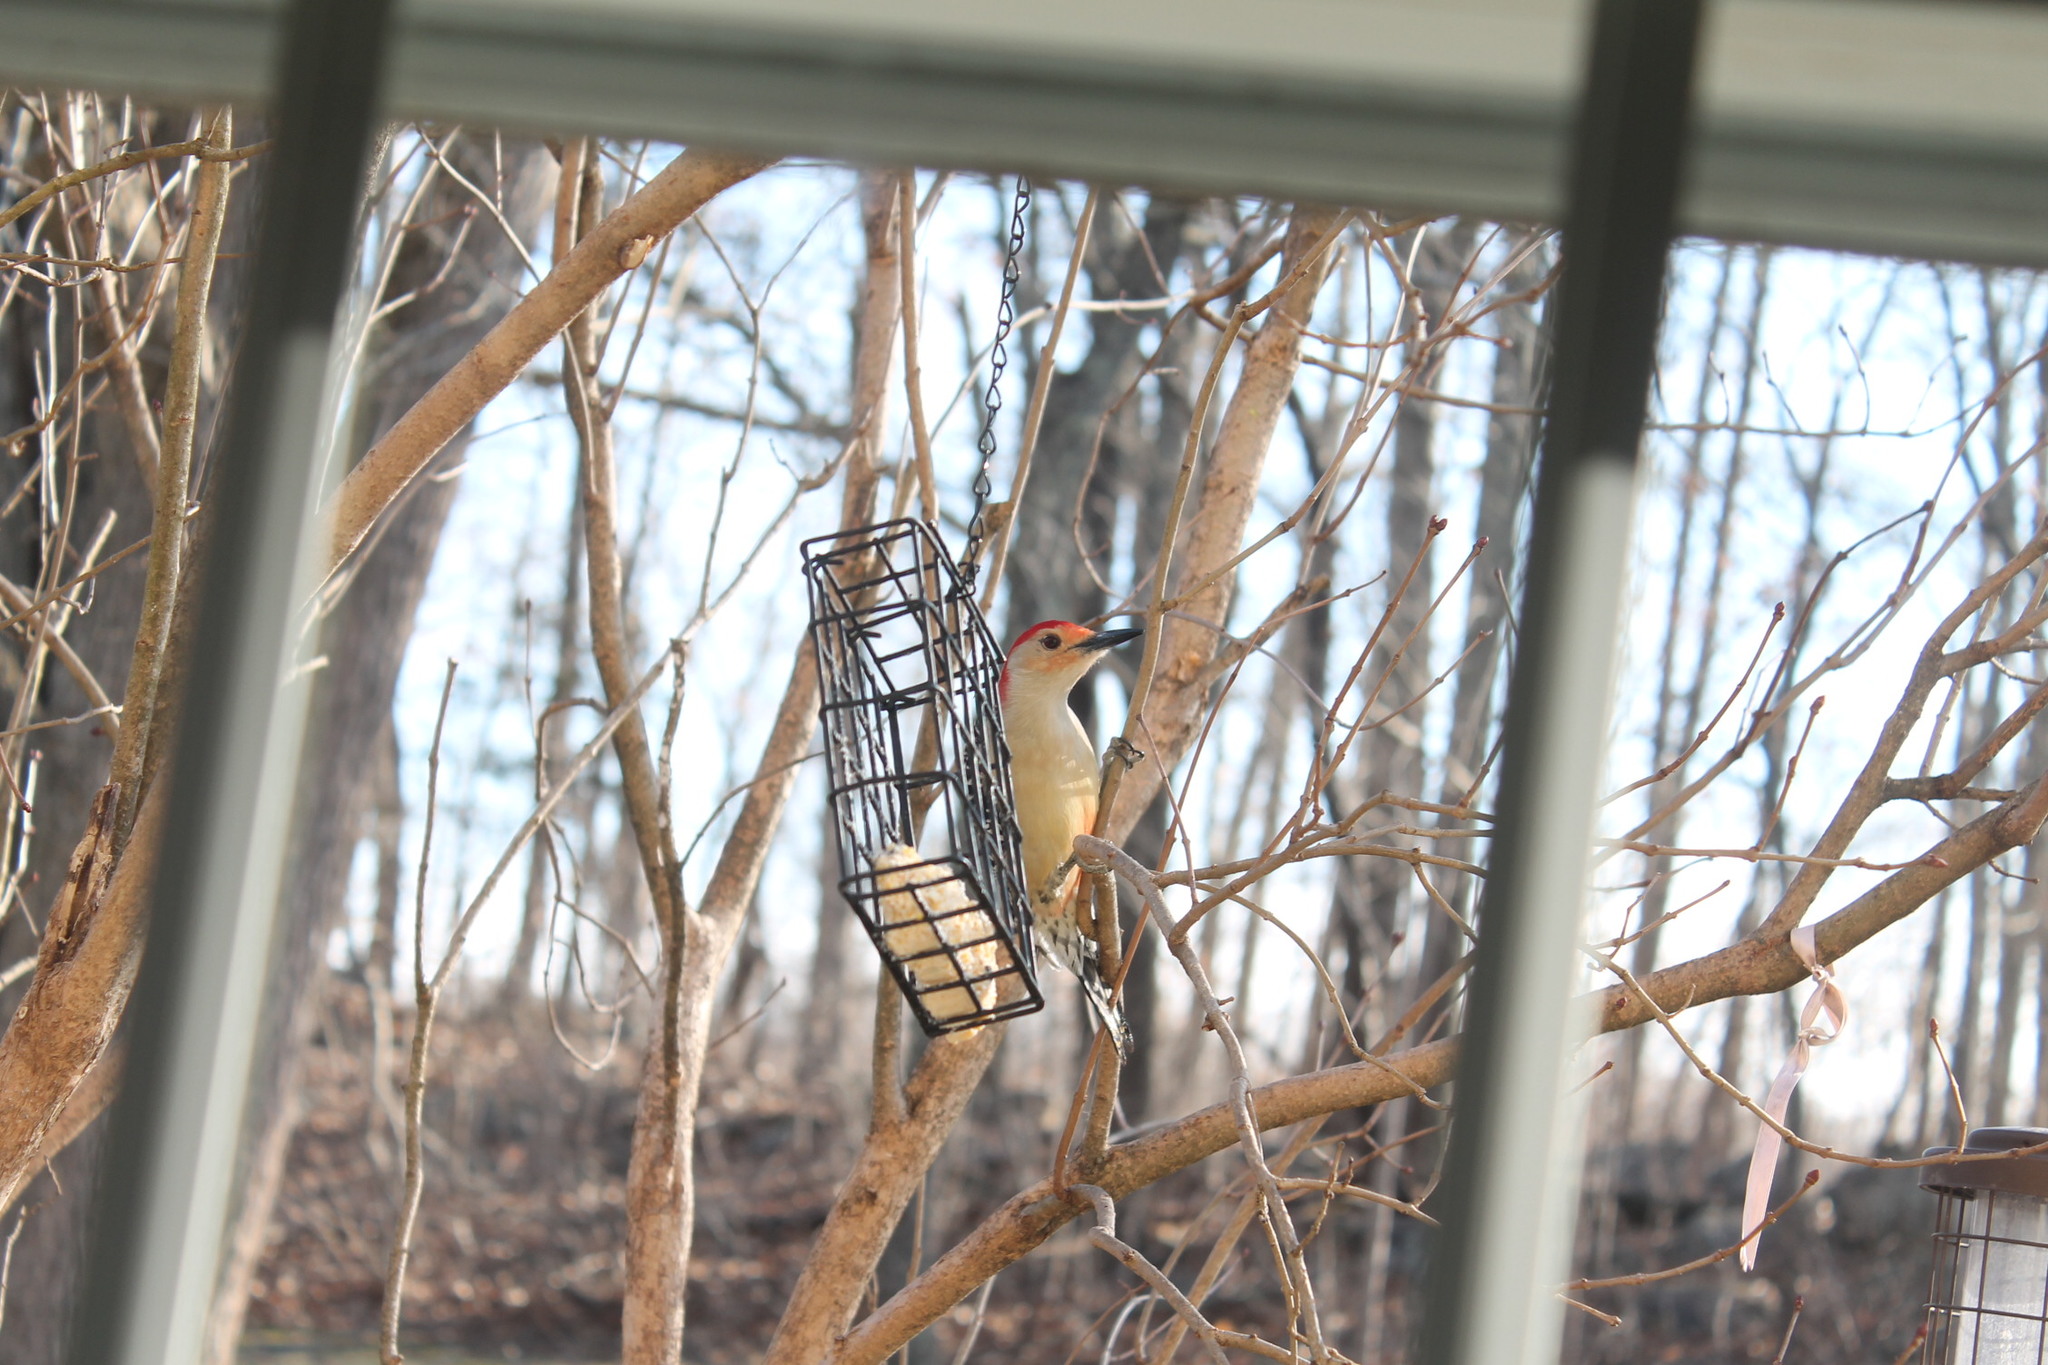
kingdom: Animalia
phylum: Chordata
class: Aves
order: Piciformes
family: Picidae
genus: Melanerpes
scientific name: Melanerpes carolinus
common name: Red-bellied woodpecker
